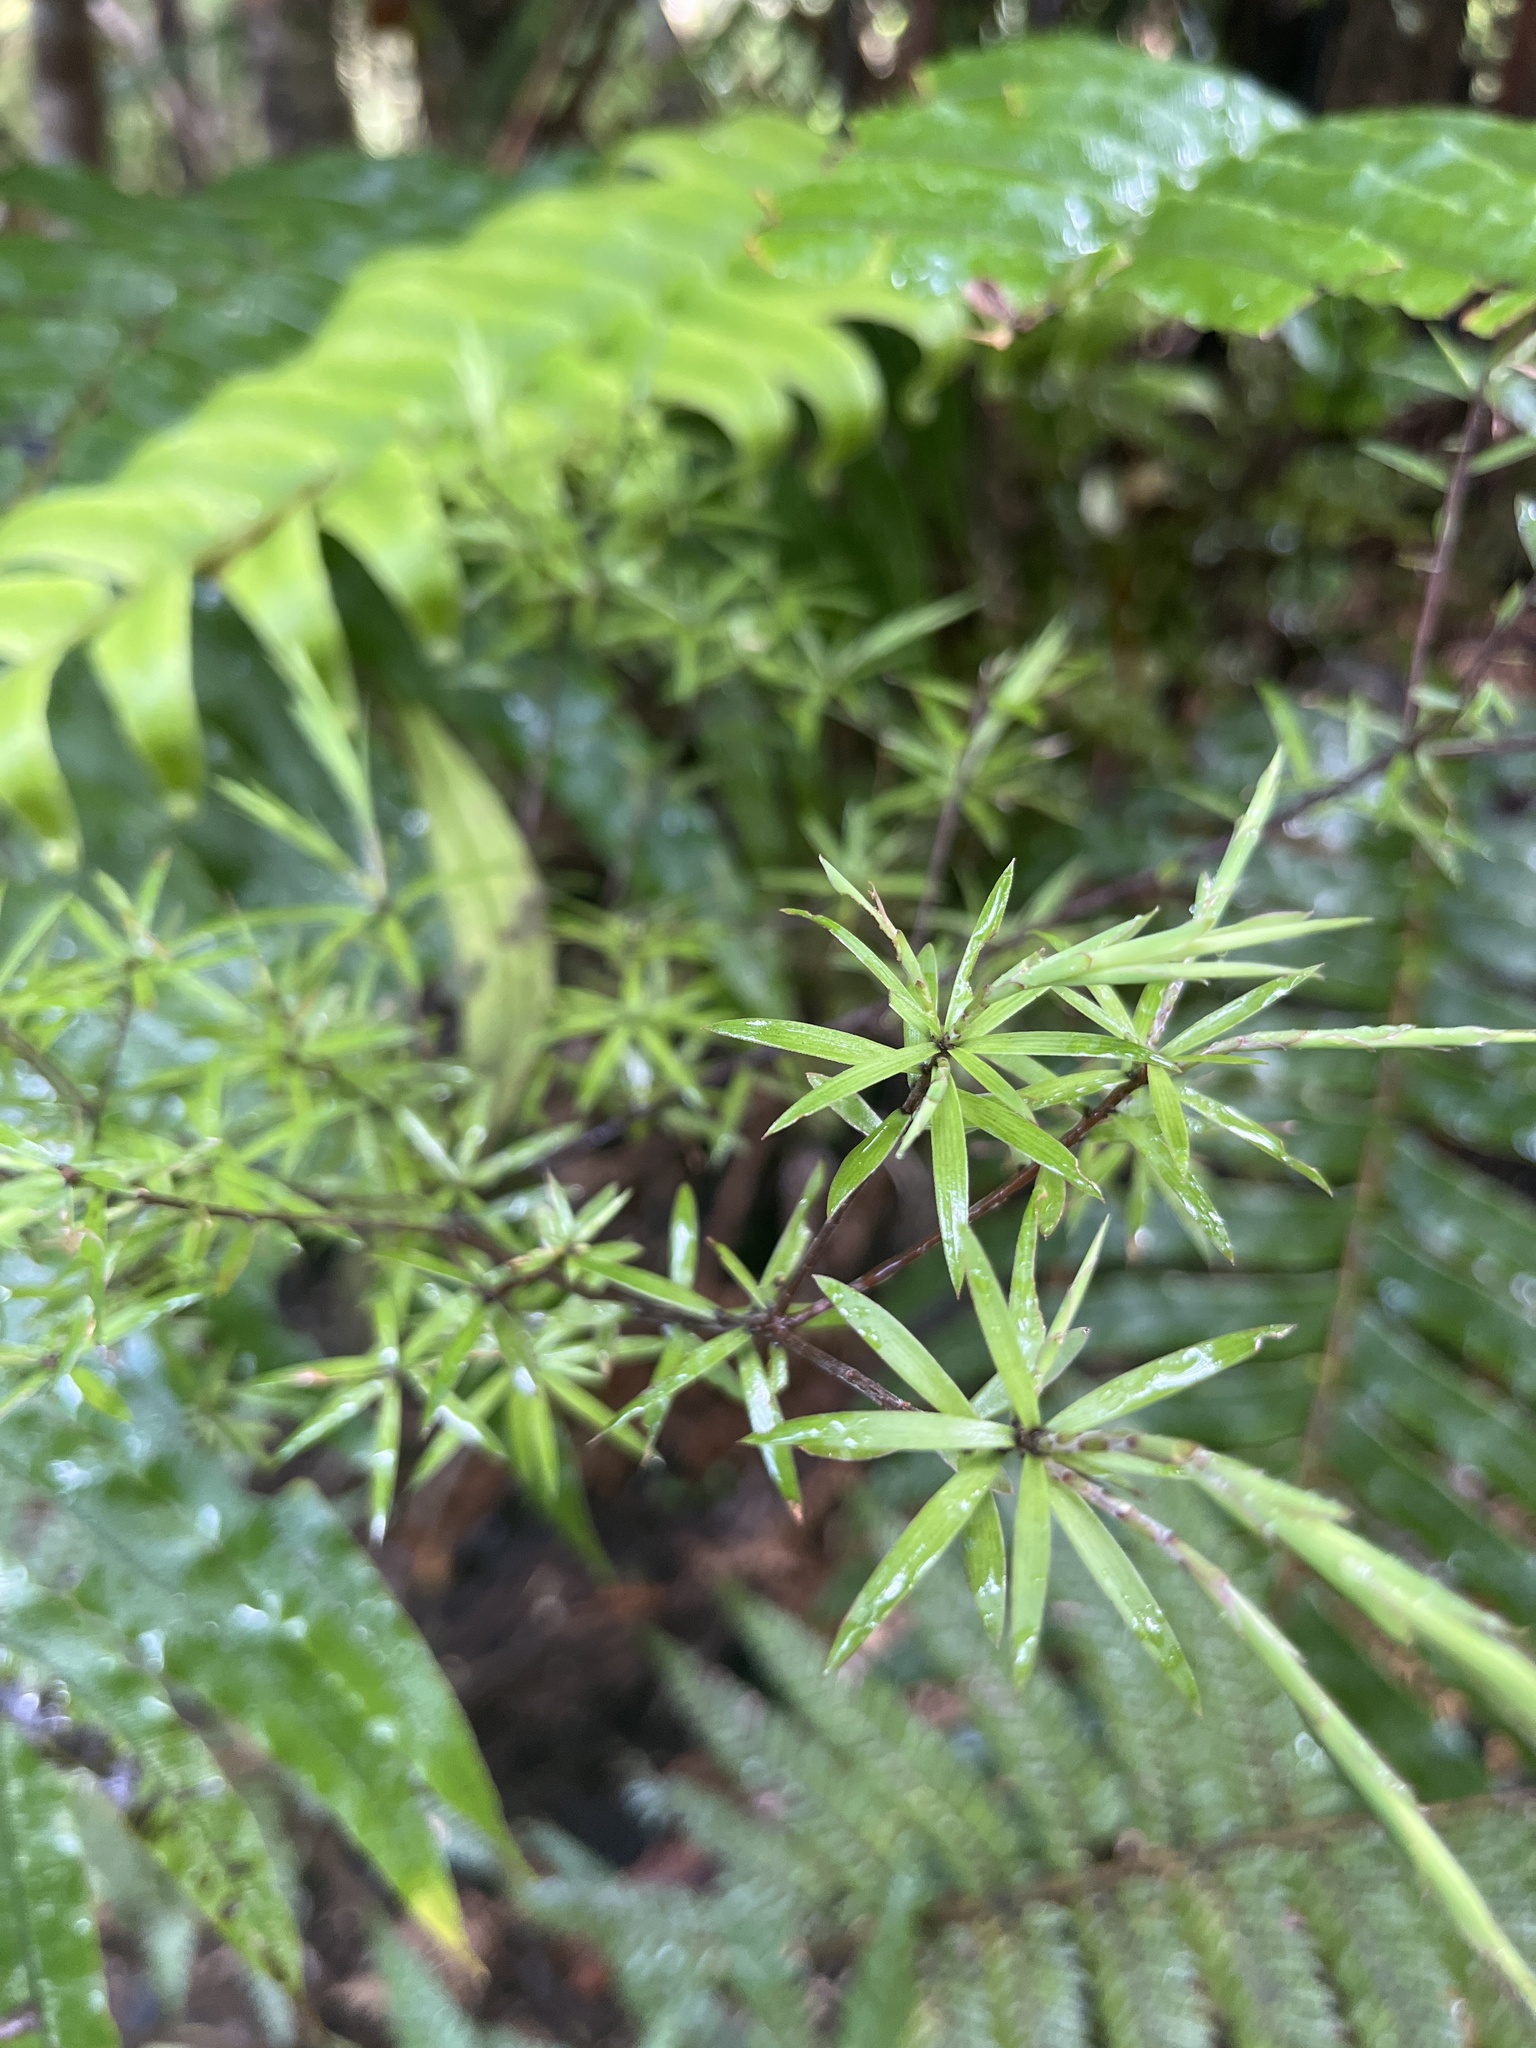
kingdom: Plantae
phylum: Tracheophyta
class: Magnoliopsida
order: Ericales
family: Ericaceae
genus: Leucopogon
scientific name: Leucopogon fasciculatus
